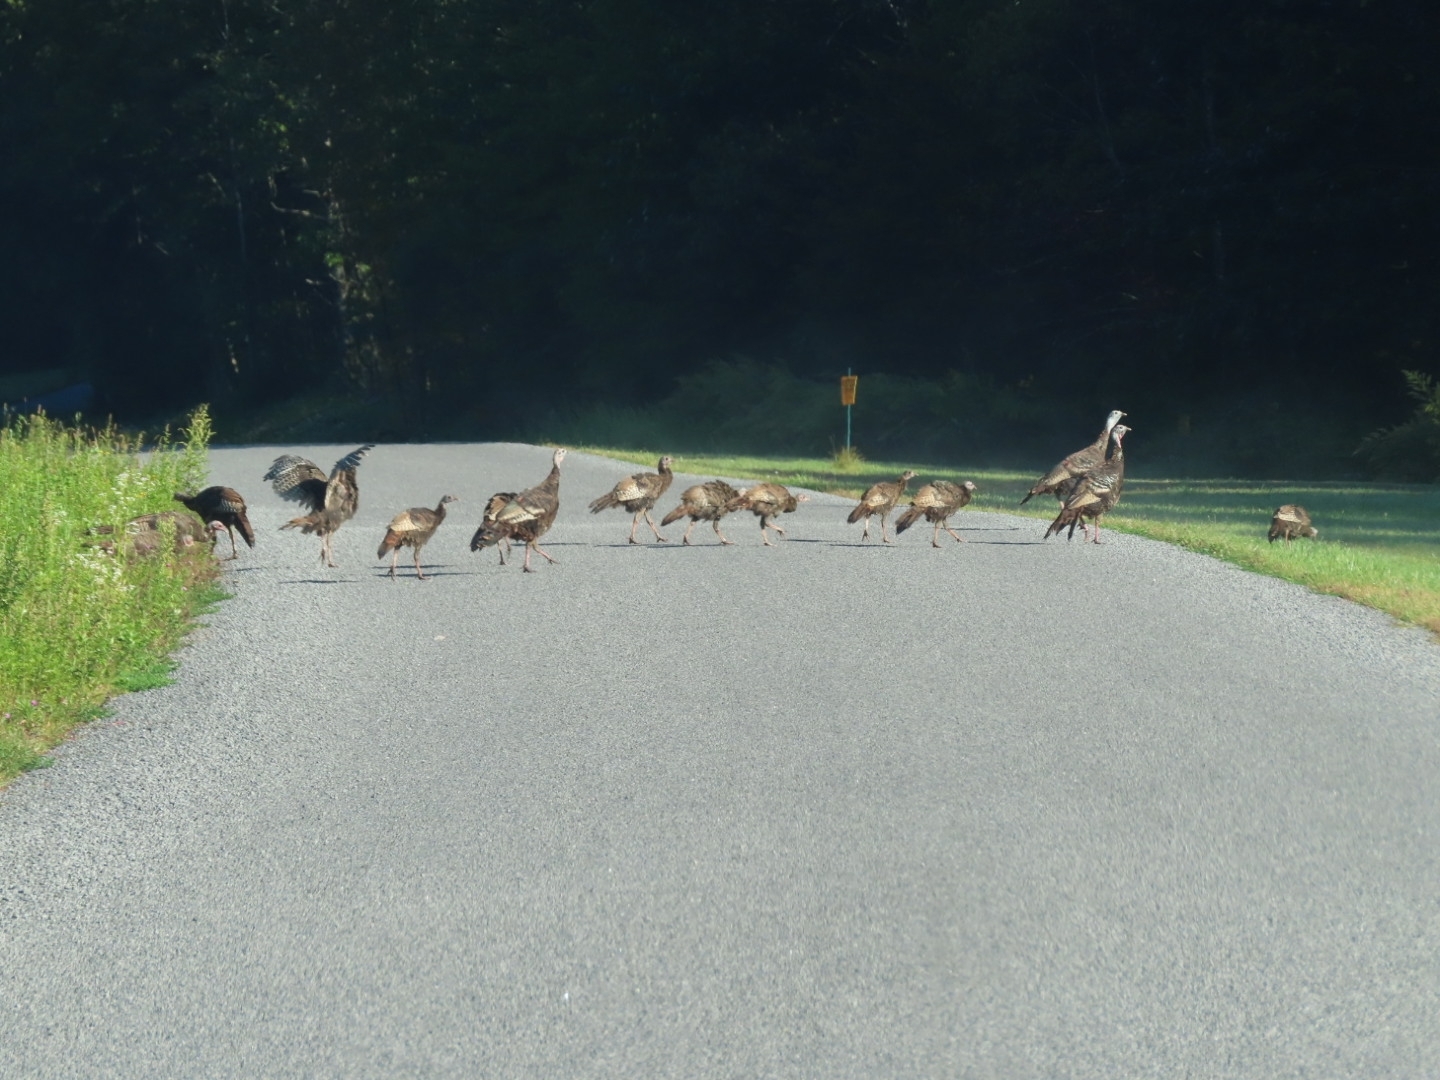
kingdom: Animalia
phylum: Chordata
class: Aves
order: Galliformes
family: Phasianidae
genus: Meleagris
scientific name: Meleagris gallopavo
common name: Wild turkey
